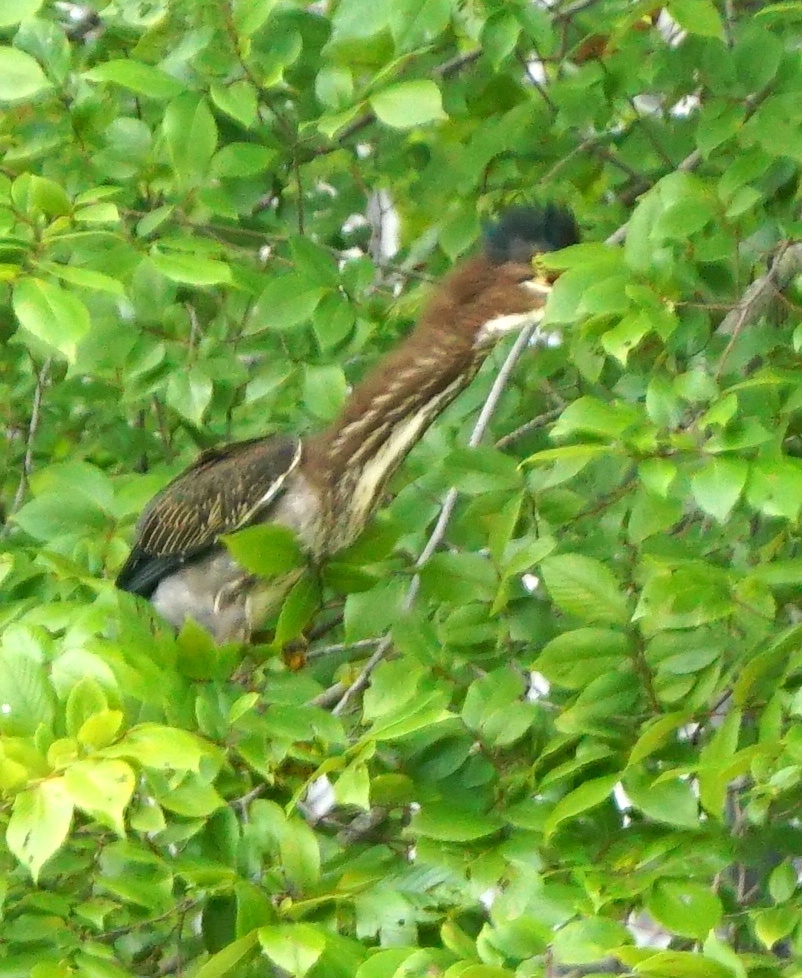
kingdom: Animalia
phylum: Chordata
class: Aves
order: Pelecaniformes
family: Ardeidae
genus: Butorides
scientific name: Butorides virescens
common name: Green heron
